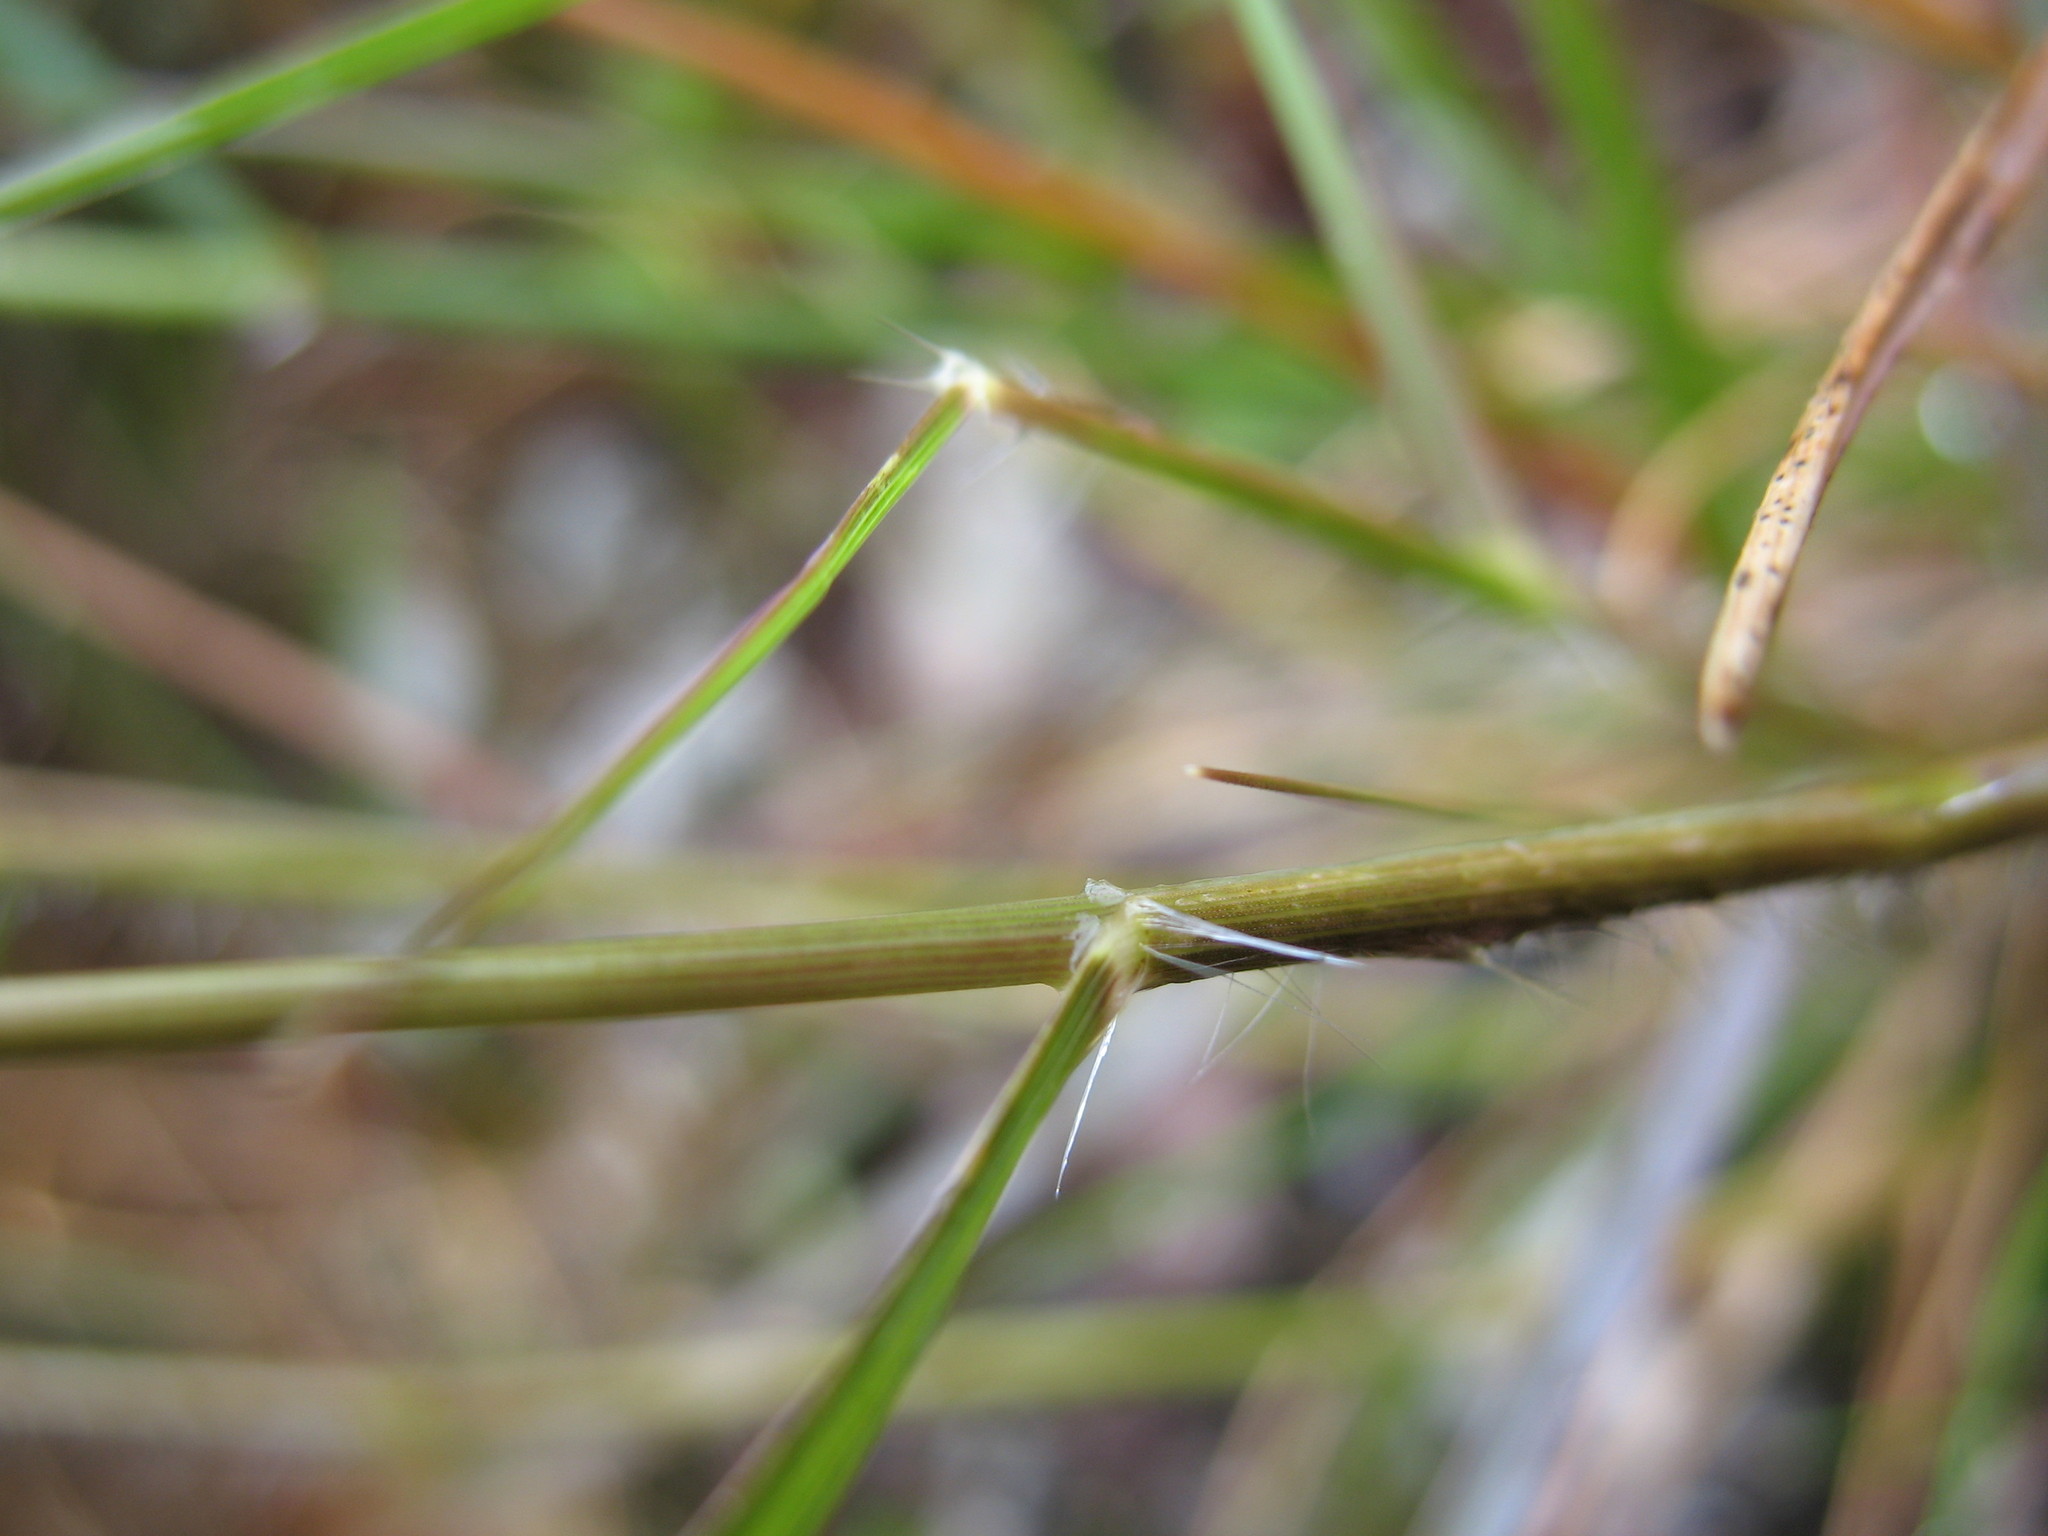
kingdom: Plantae
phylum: Tracheophyta
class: Liliopsida
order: Poales
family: Poaceae
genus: Rytidosperma
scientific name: Rytidosperma tenuius
